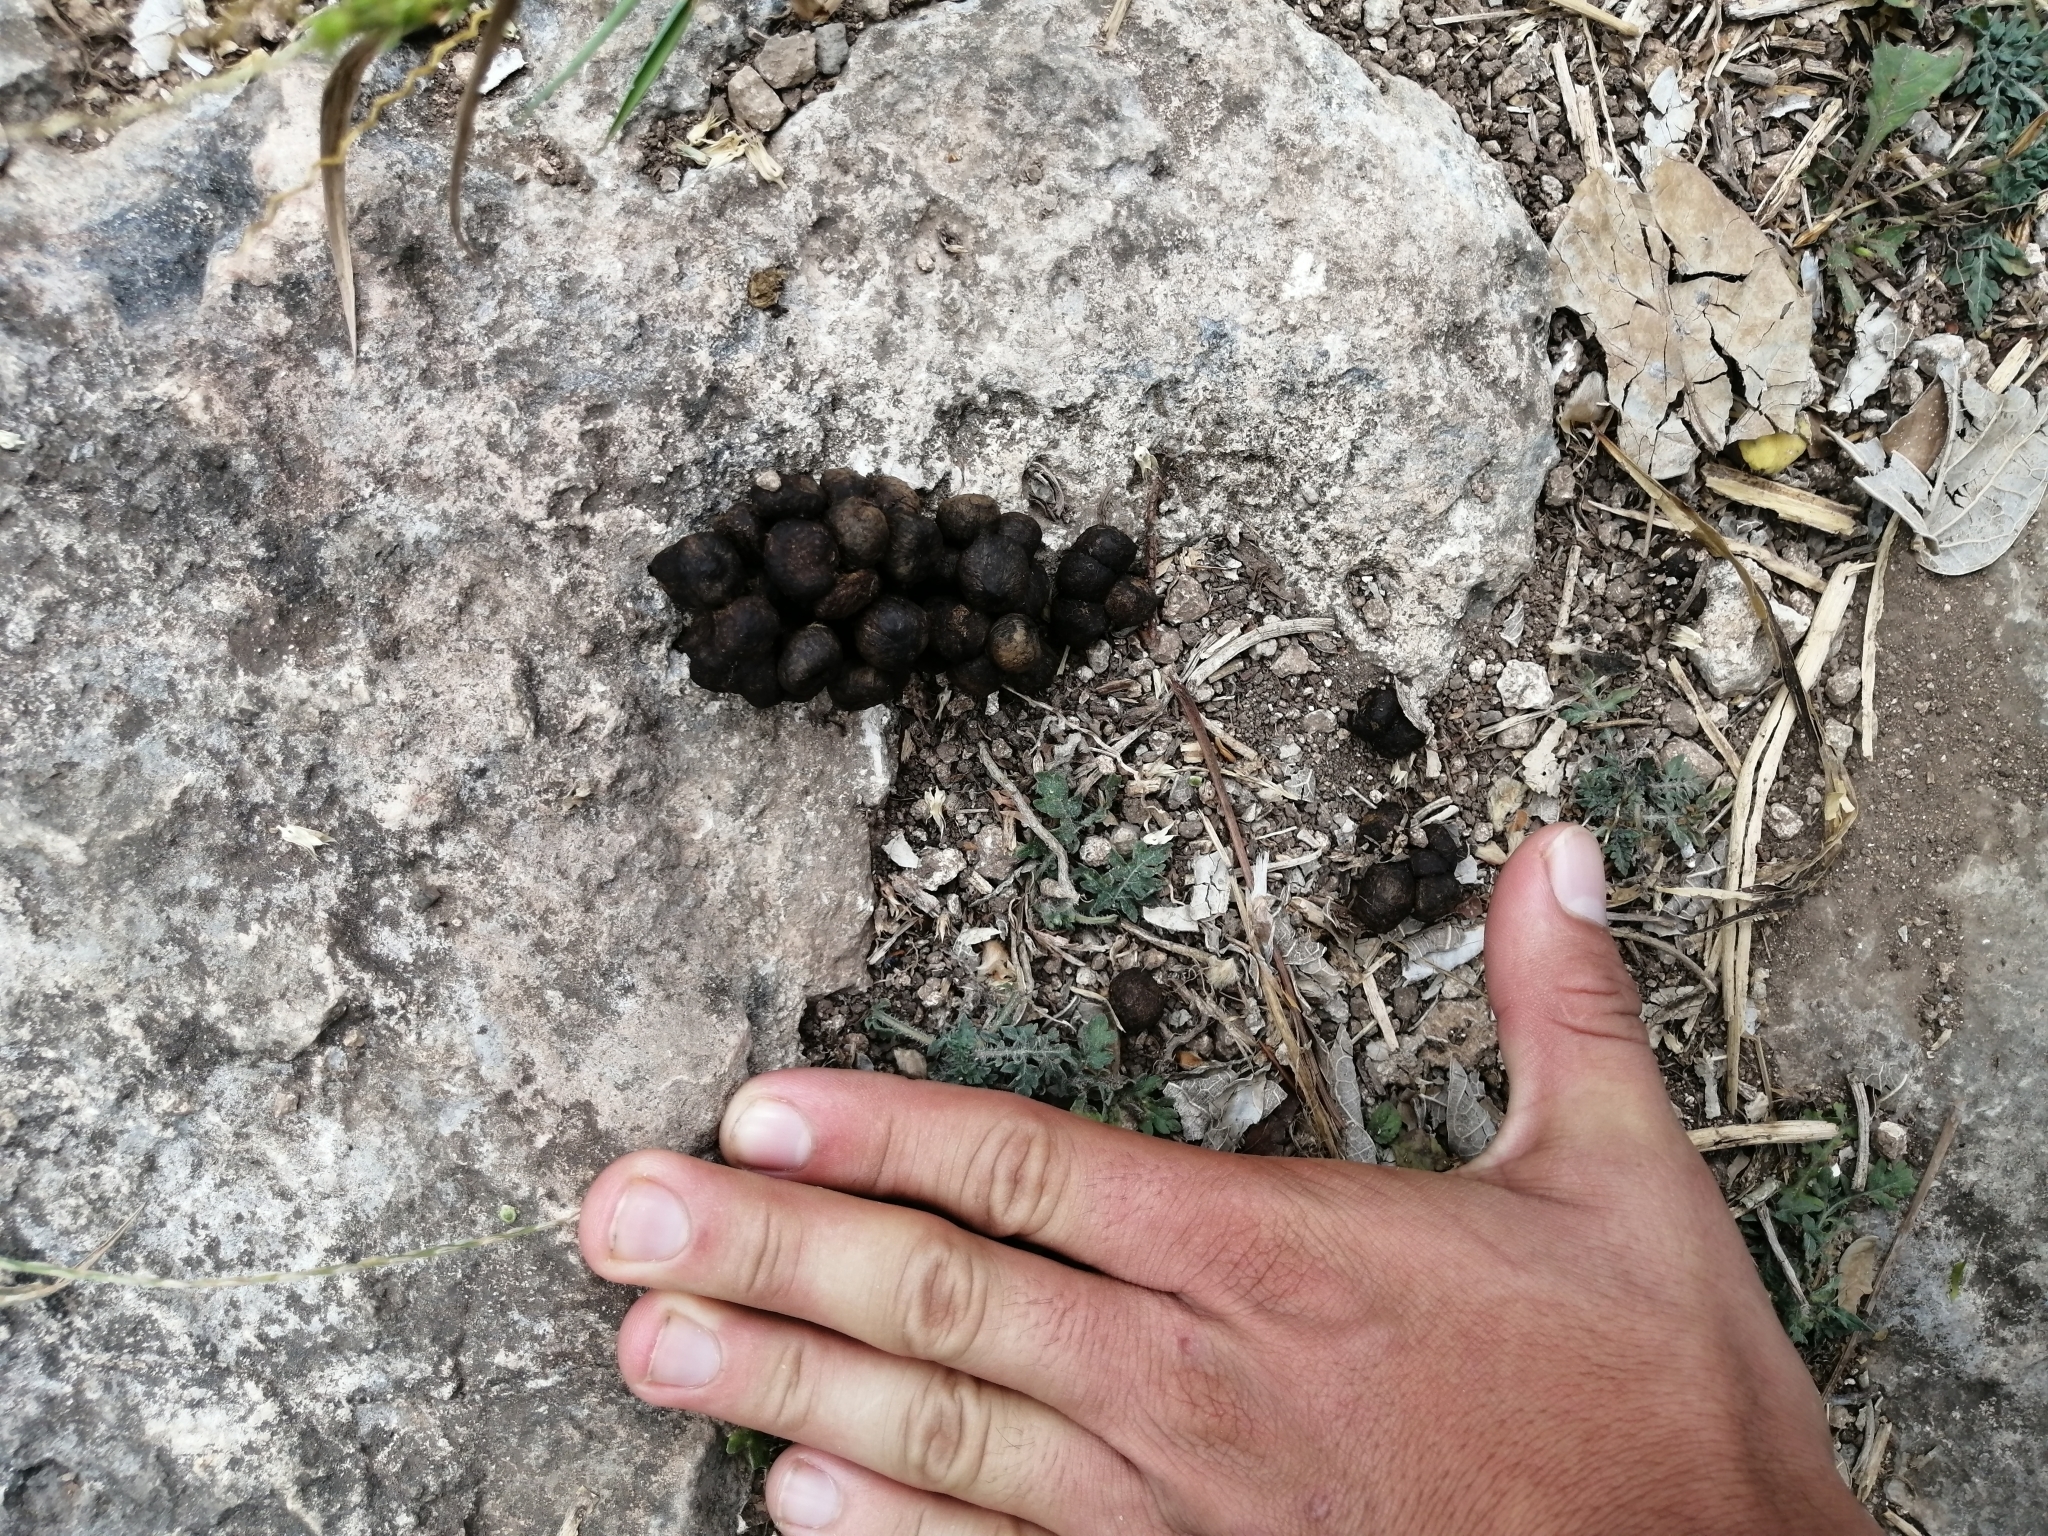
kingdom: Animalia
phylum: Chordata
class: Mammalia
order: Artiodactyla
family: Tayassuidae
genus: Pecari
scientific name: Pecari tajacu
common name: Collared peccary
